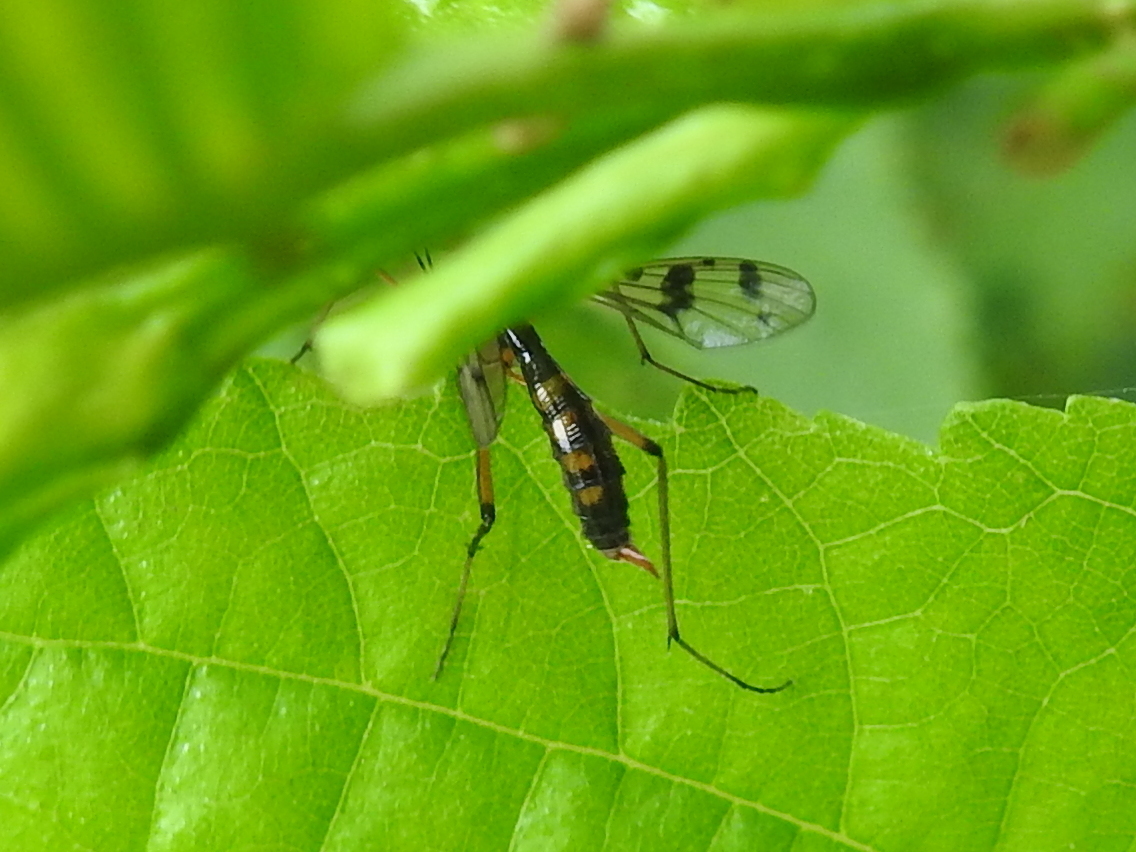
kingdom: Animalia
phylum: Arthropoda
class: Insecta
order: Diptera
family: Ptychopteridae
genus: Ptychoptera
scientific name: Ptychoptera contaminata
